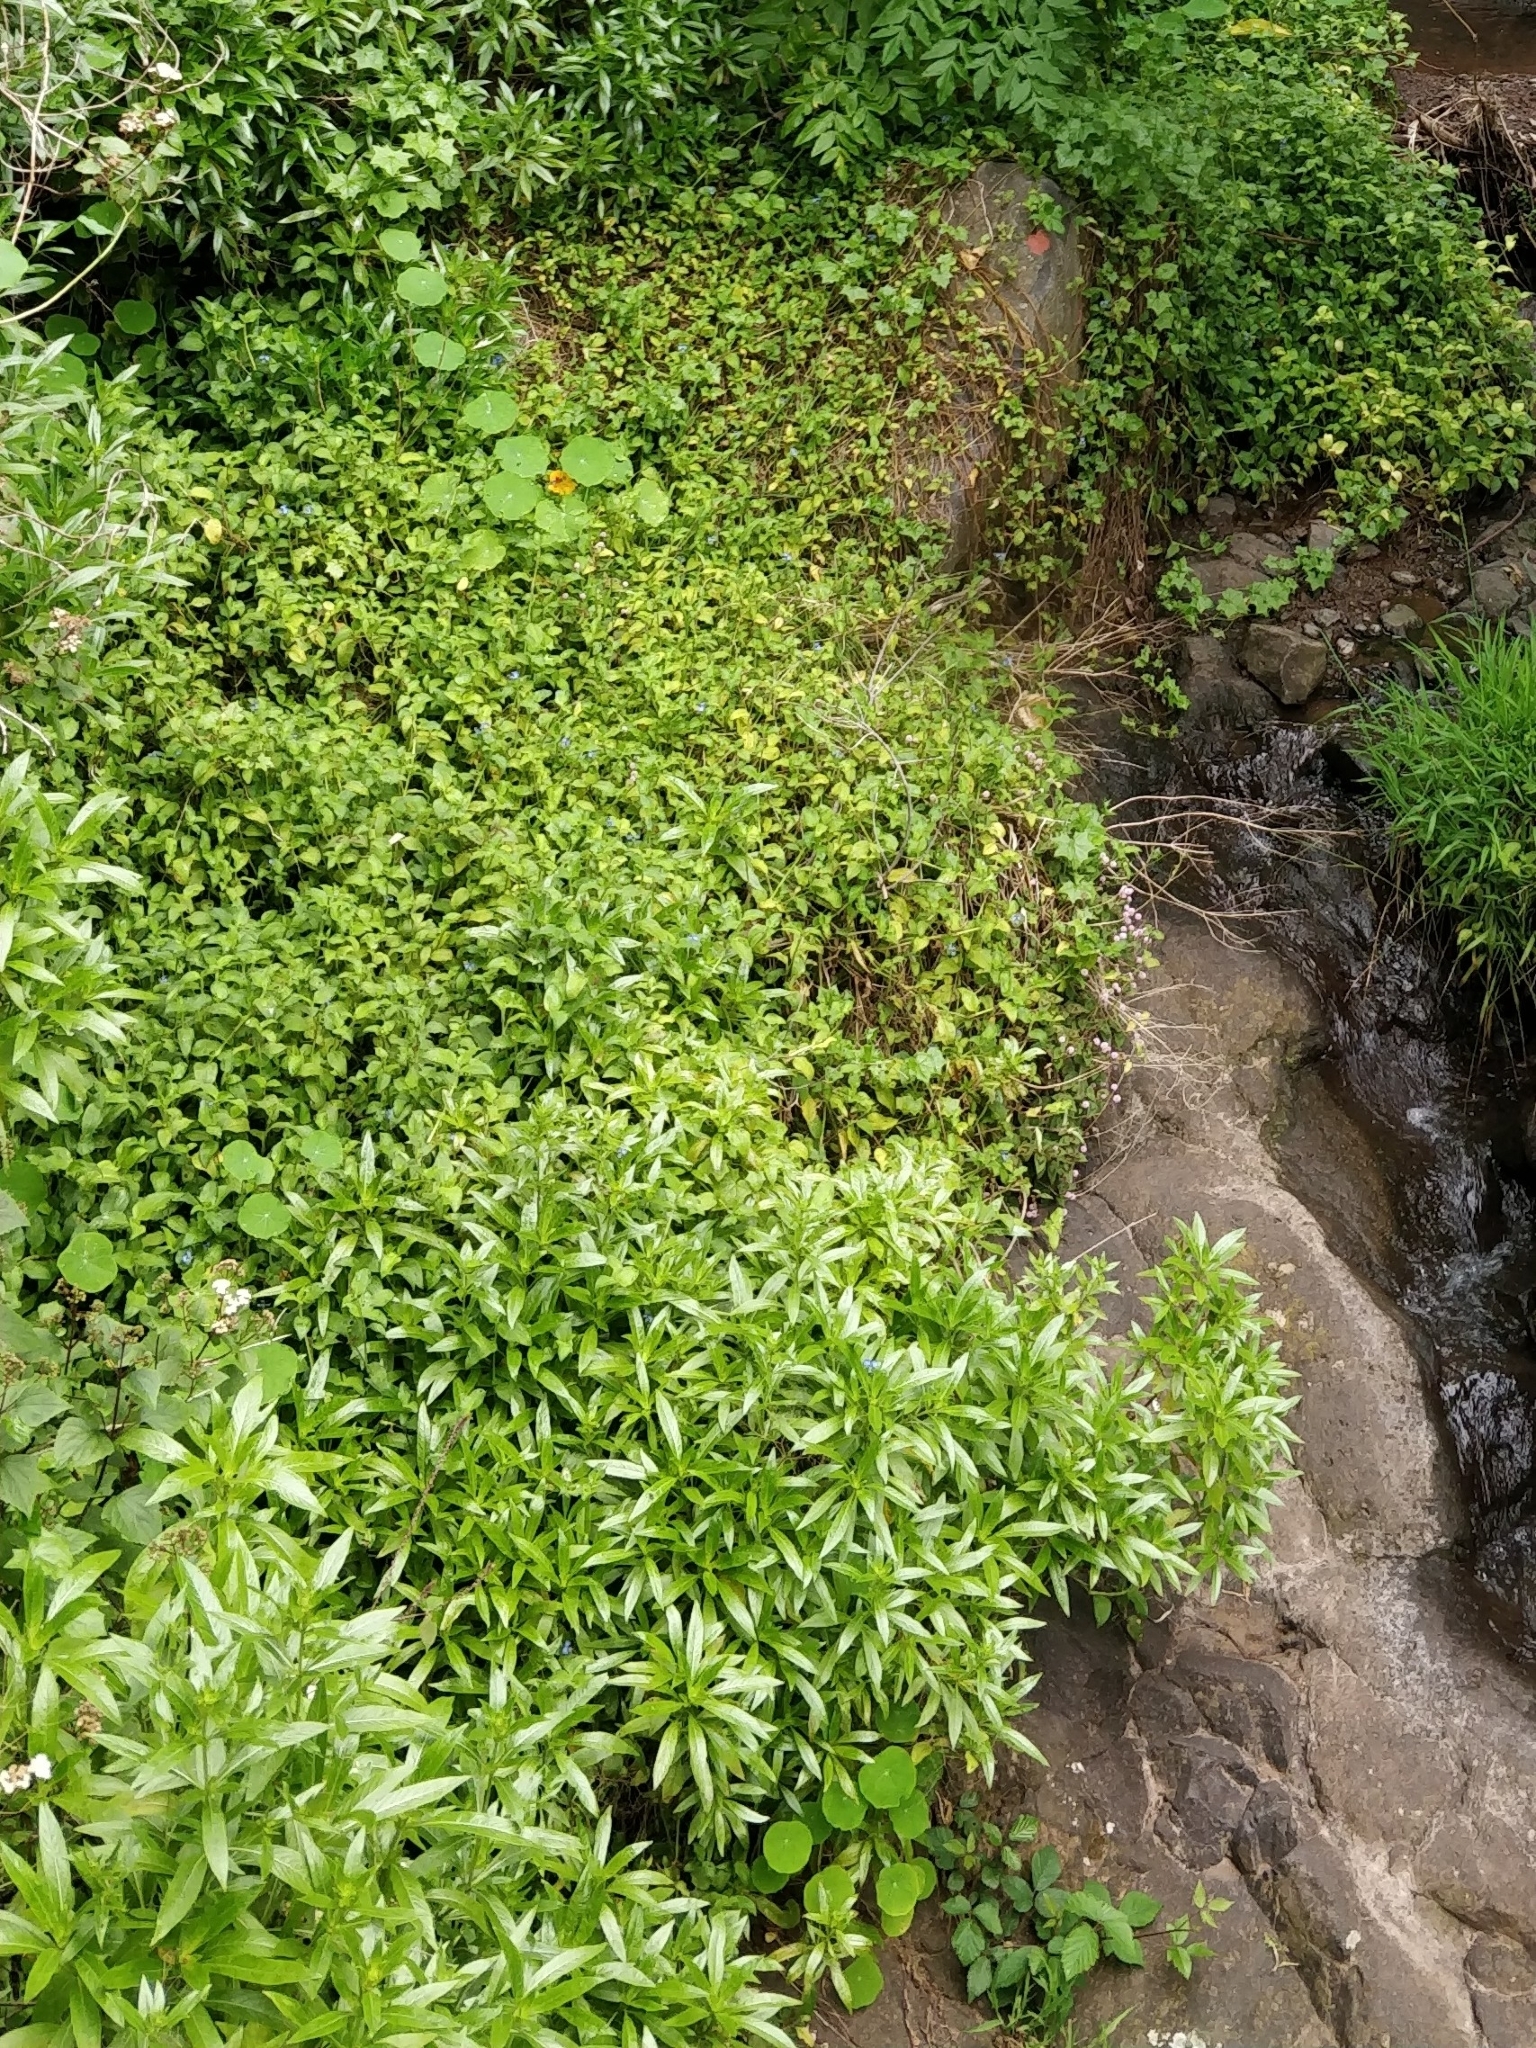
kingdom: Plantae
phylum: Tracheophyta
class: Magnoliopsida
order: Gentianales
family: Rubiaceae
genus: Phyllis
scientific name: Phyllis nobla
